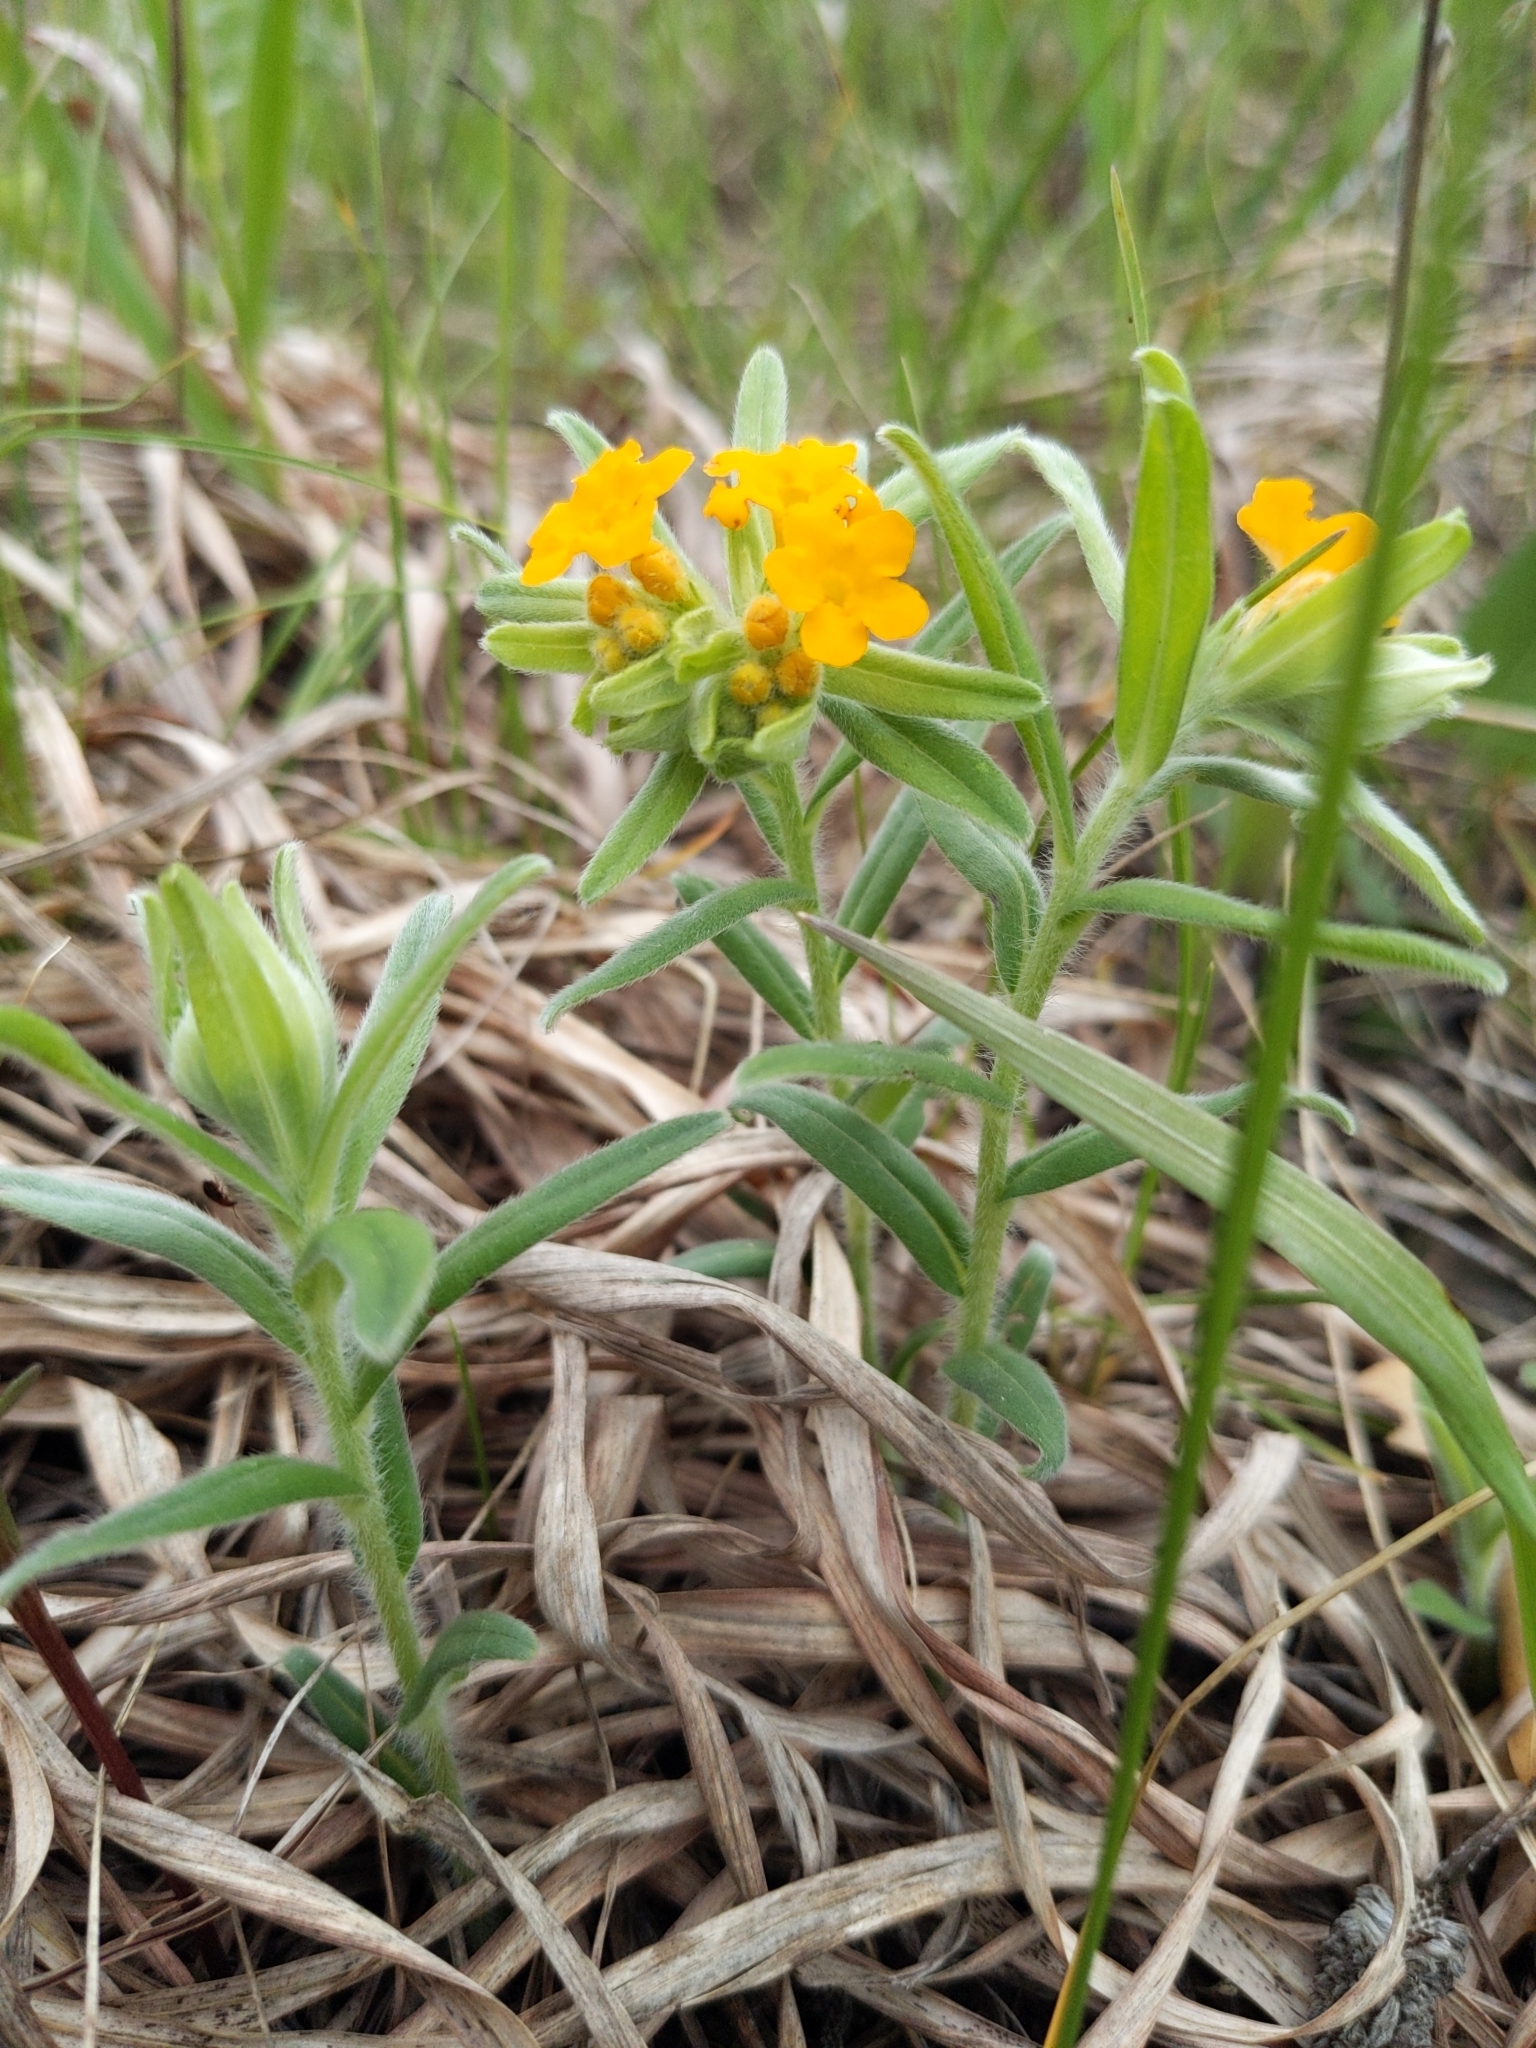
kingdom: Plantae
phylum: Tracheophyta
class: Magnoliopsida
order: Boraginales
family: Boraginaceae
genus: Lithospermum
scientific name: Lithospermum canescens
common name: Hoary puccoon
